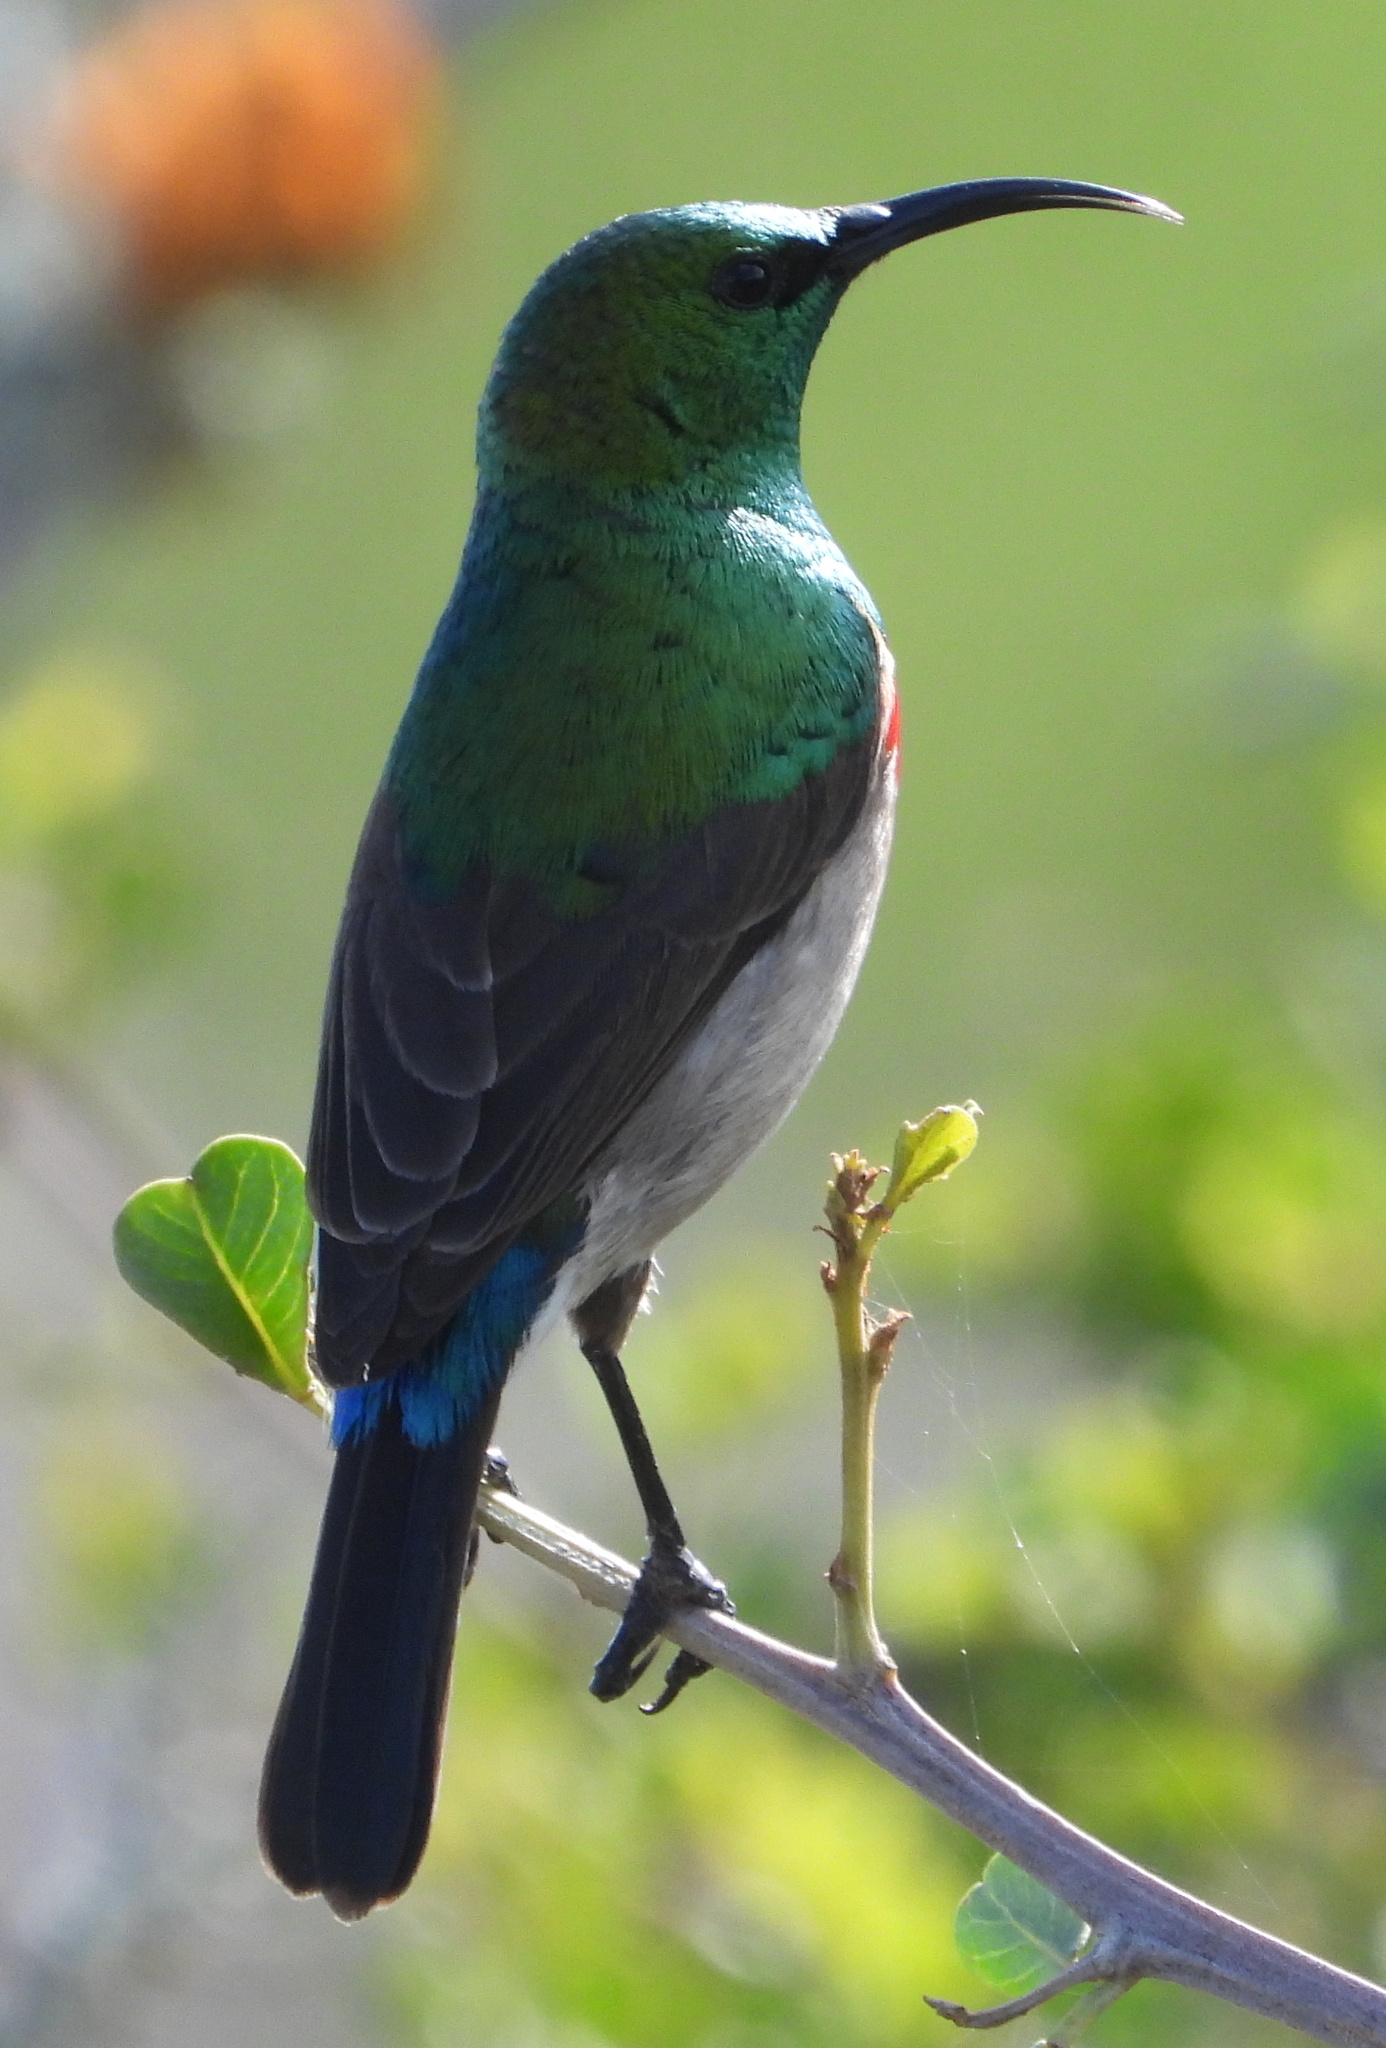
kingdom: Animalia
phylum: Chordata
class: Aves
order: Passeriformes
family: Nectariniidae
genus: Cinnyris
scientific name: Cinnyris chalybeus
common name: Southern double-collared sunbird
